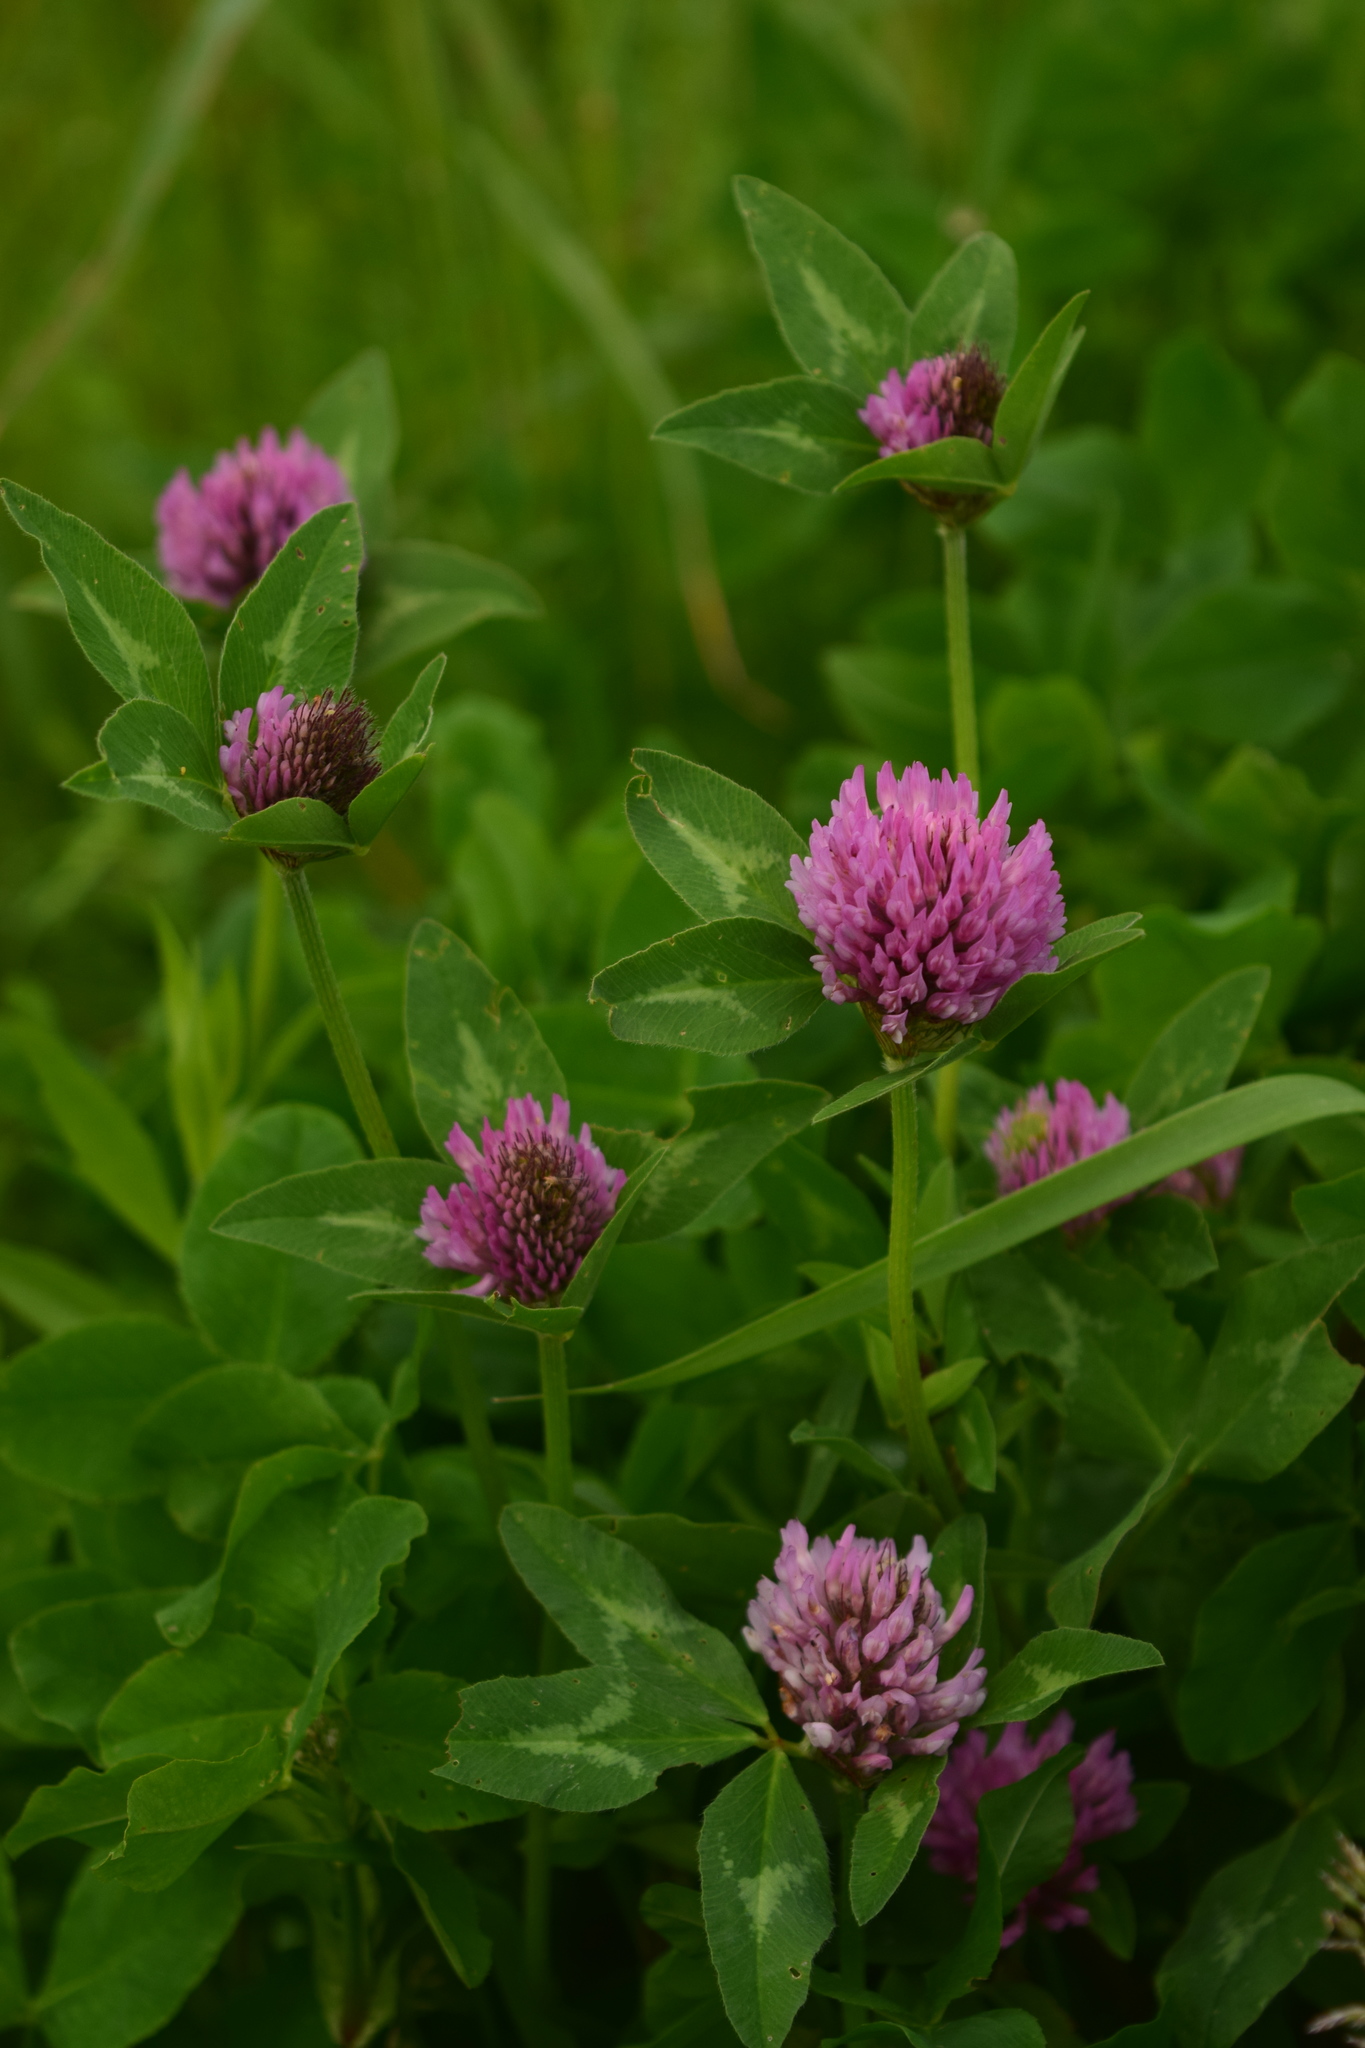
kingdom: Plantae
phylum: Tracheophyta
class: Magnoliopsida
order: Fabales
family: Fabaceae
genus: Trifolium
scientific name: Trifolium pratense
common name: Red clover
